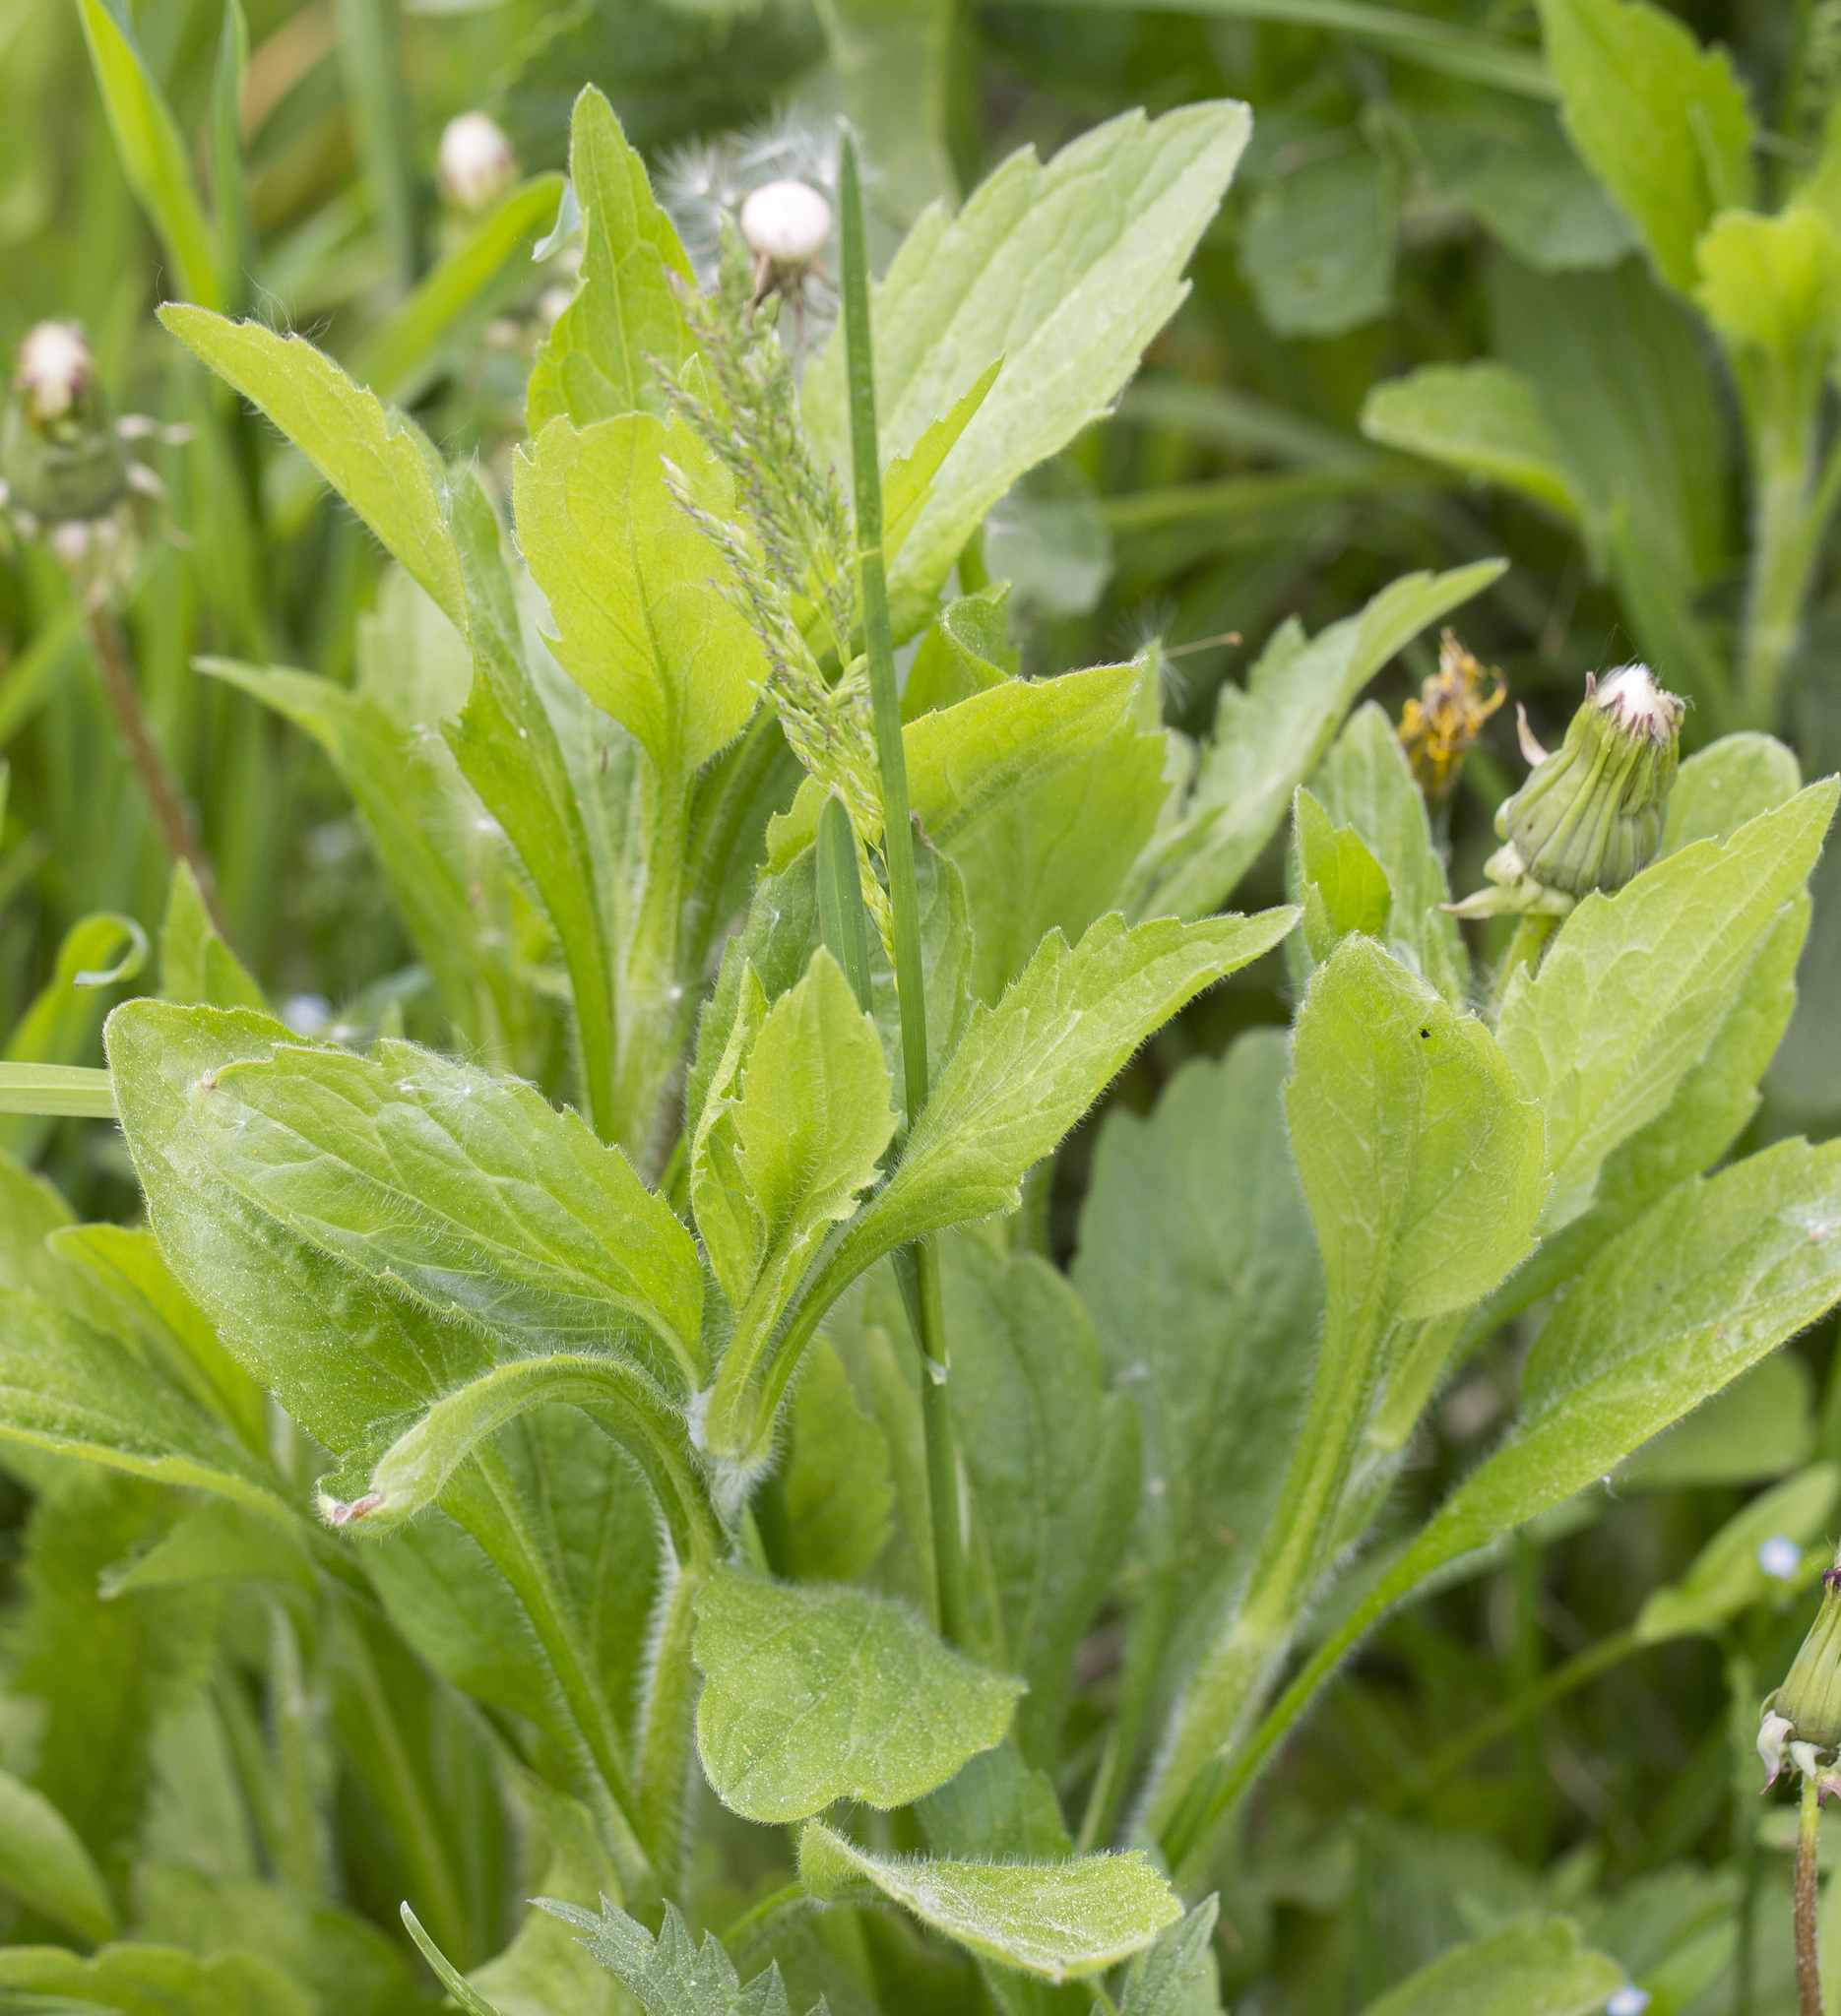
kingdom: Plantae
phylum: Tracheophyta
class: Magnoliopsida
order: Asterales
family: Asteraceae
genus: Erigeron
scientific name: Erigeron annuus
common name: Tall fleabane
